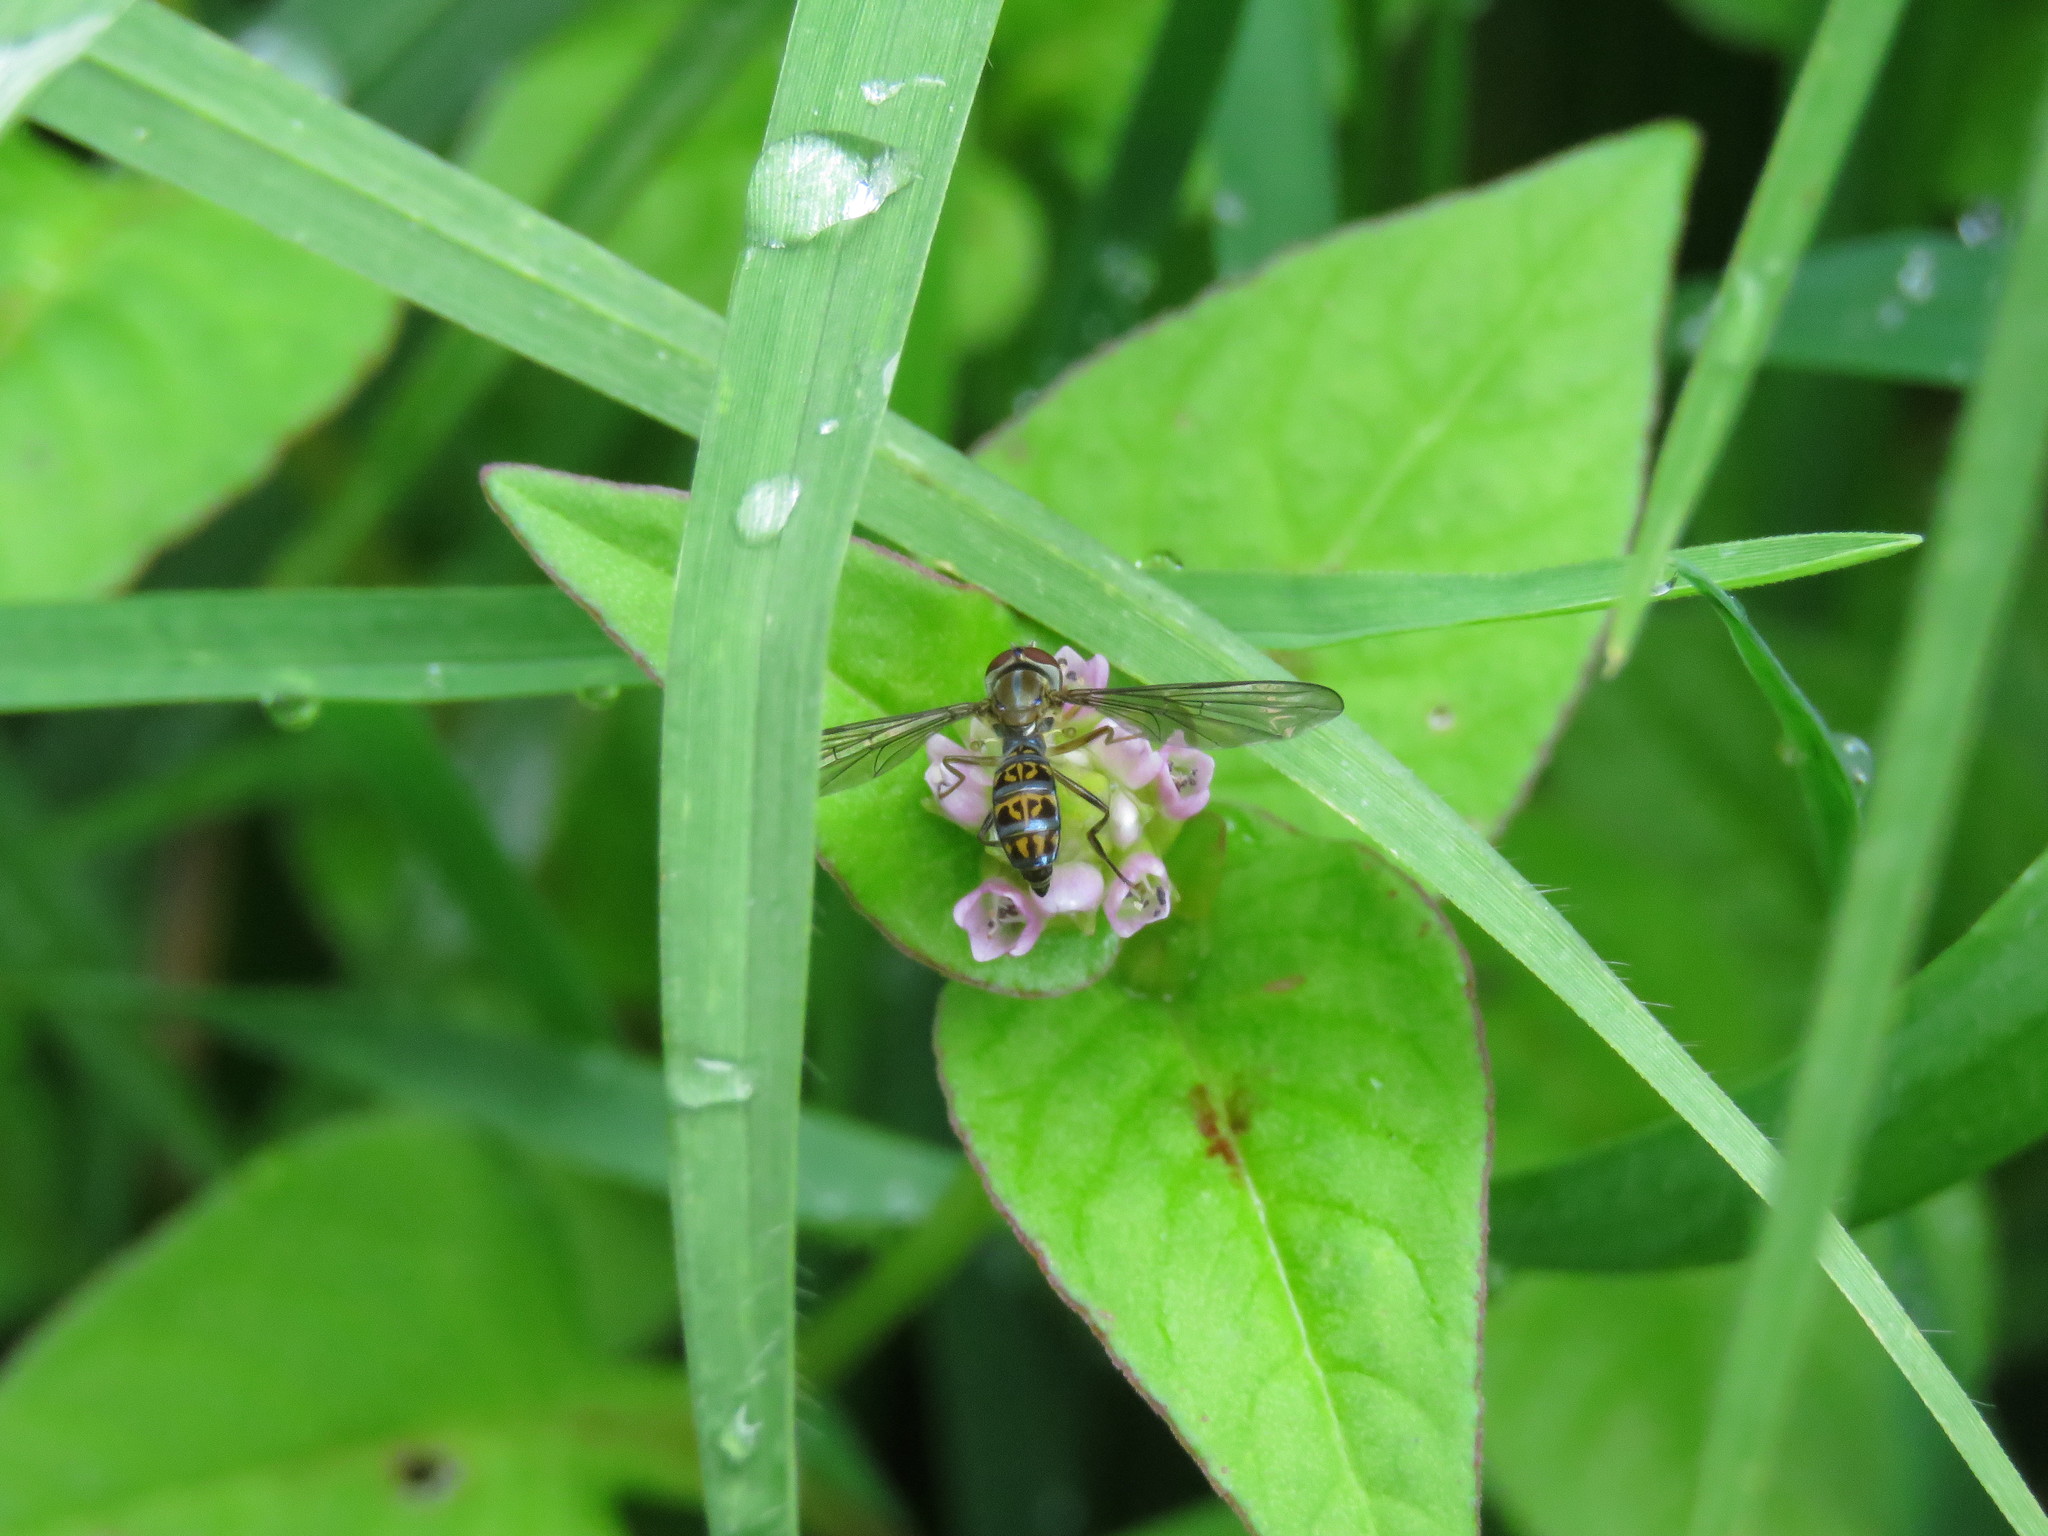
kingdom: Animalia
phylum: Arthropoda
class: Insecta
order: Diptera
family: Syrphidae
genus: Toxomerus
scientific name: Toxomerus nasutus
